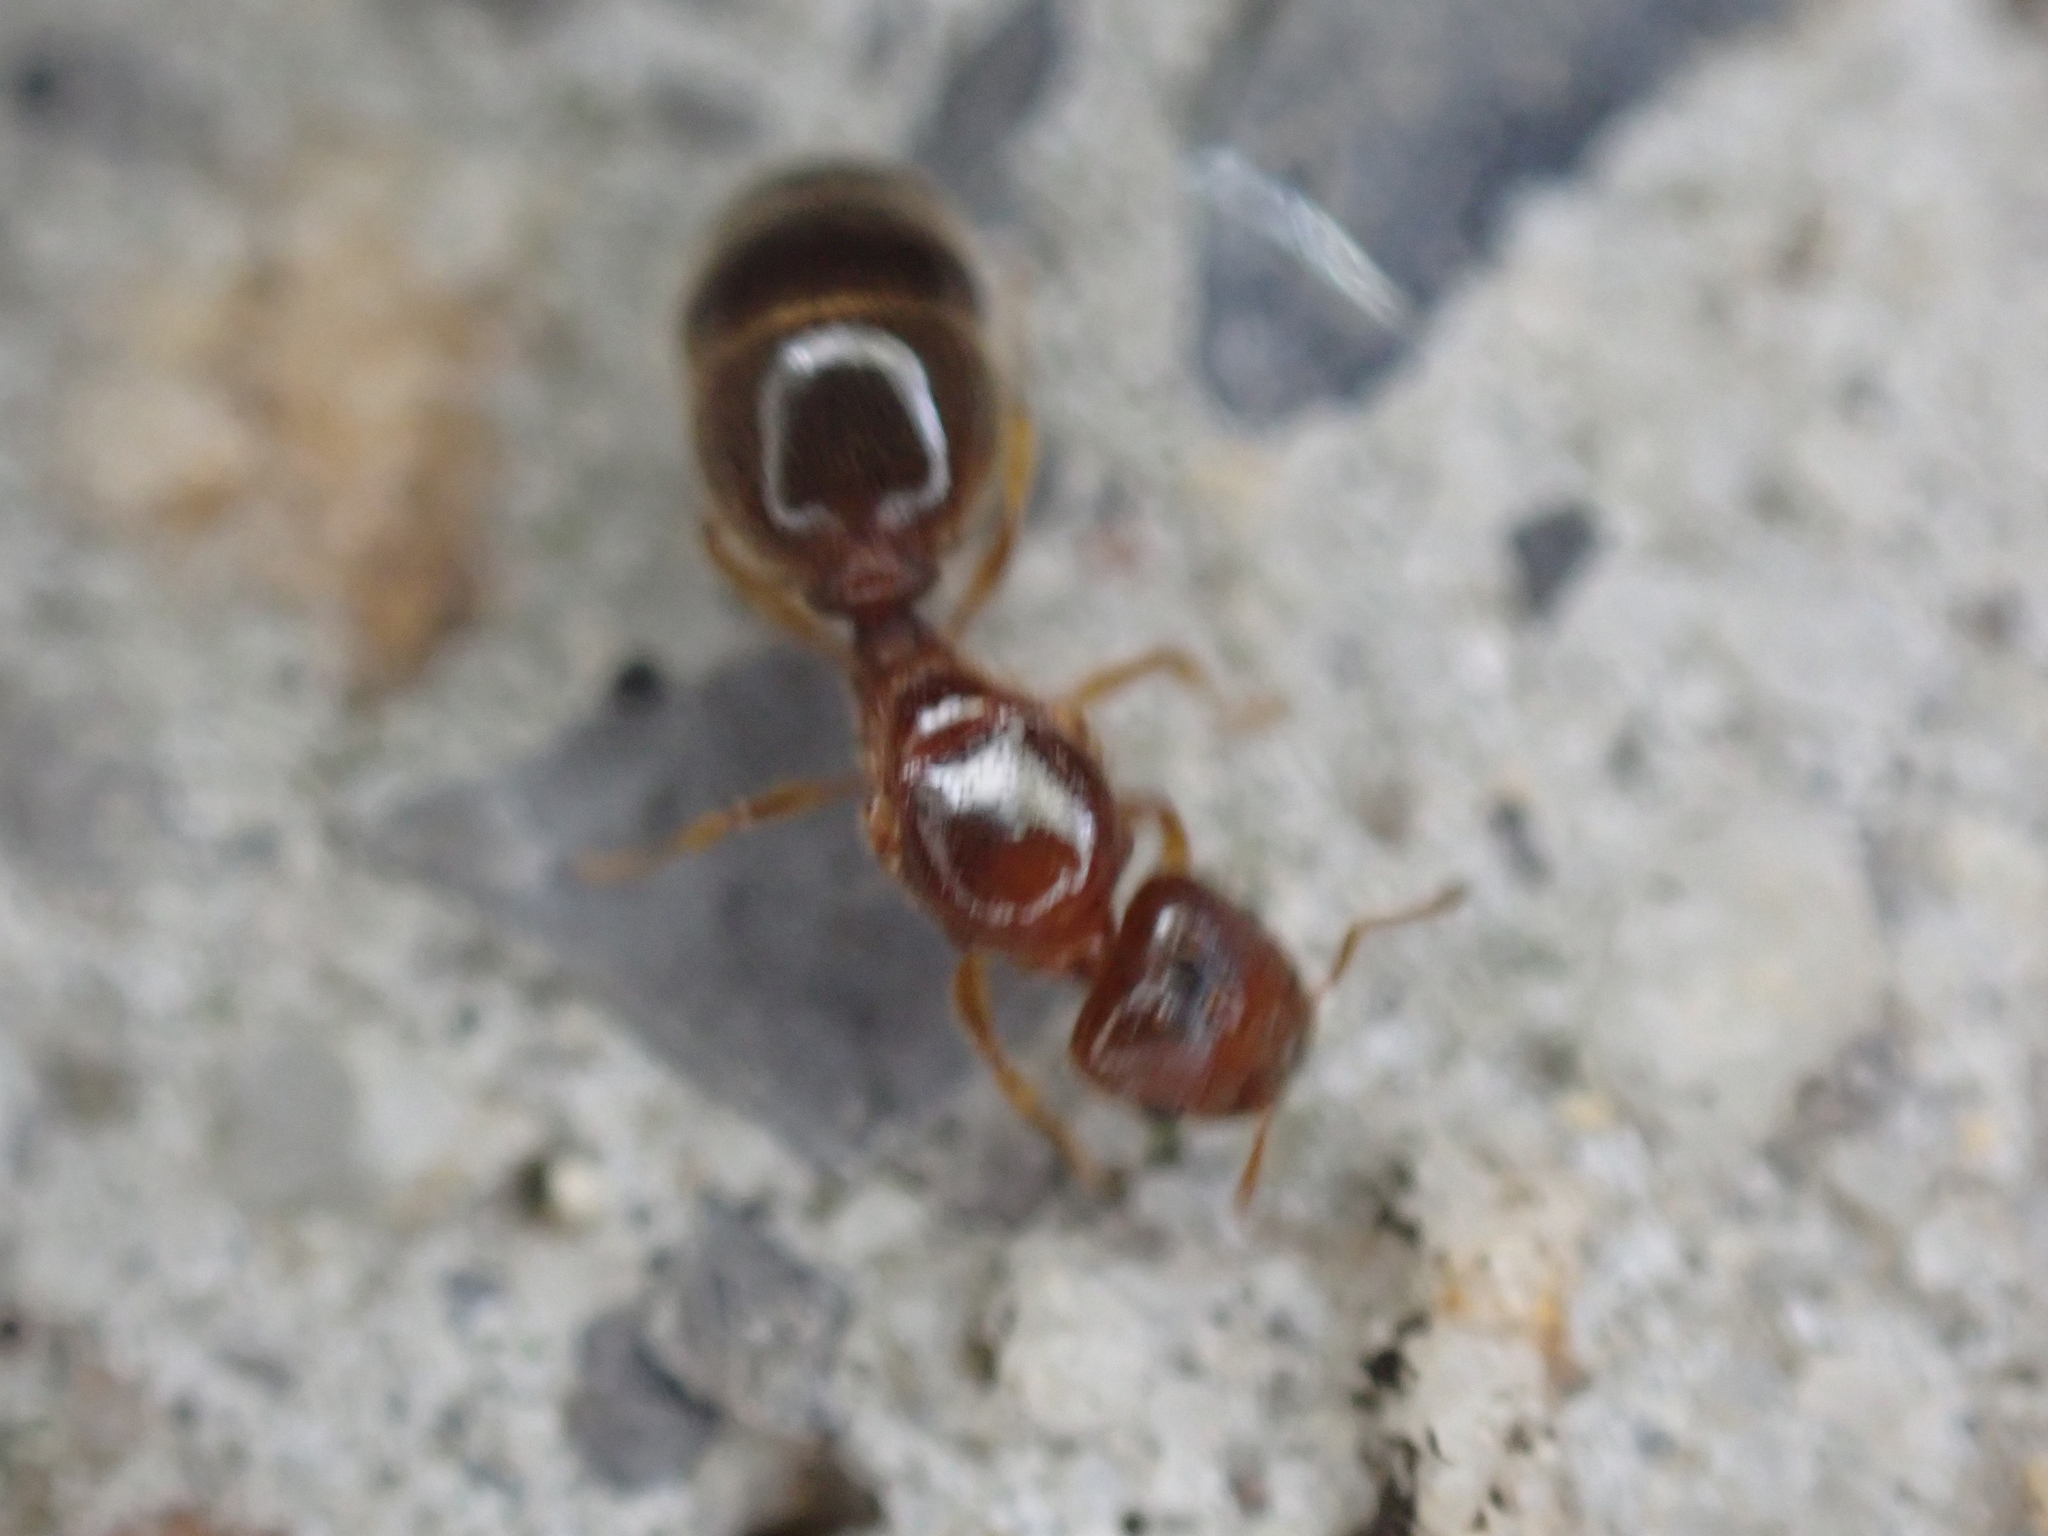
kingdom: Animalia
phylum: Arthropoda
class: Insecta
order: Hymenoptera
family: Formicidae
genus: Pheidole
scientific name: Pheidole bicarinata
